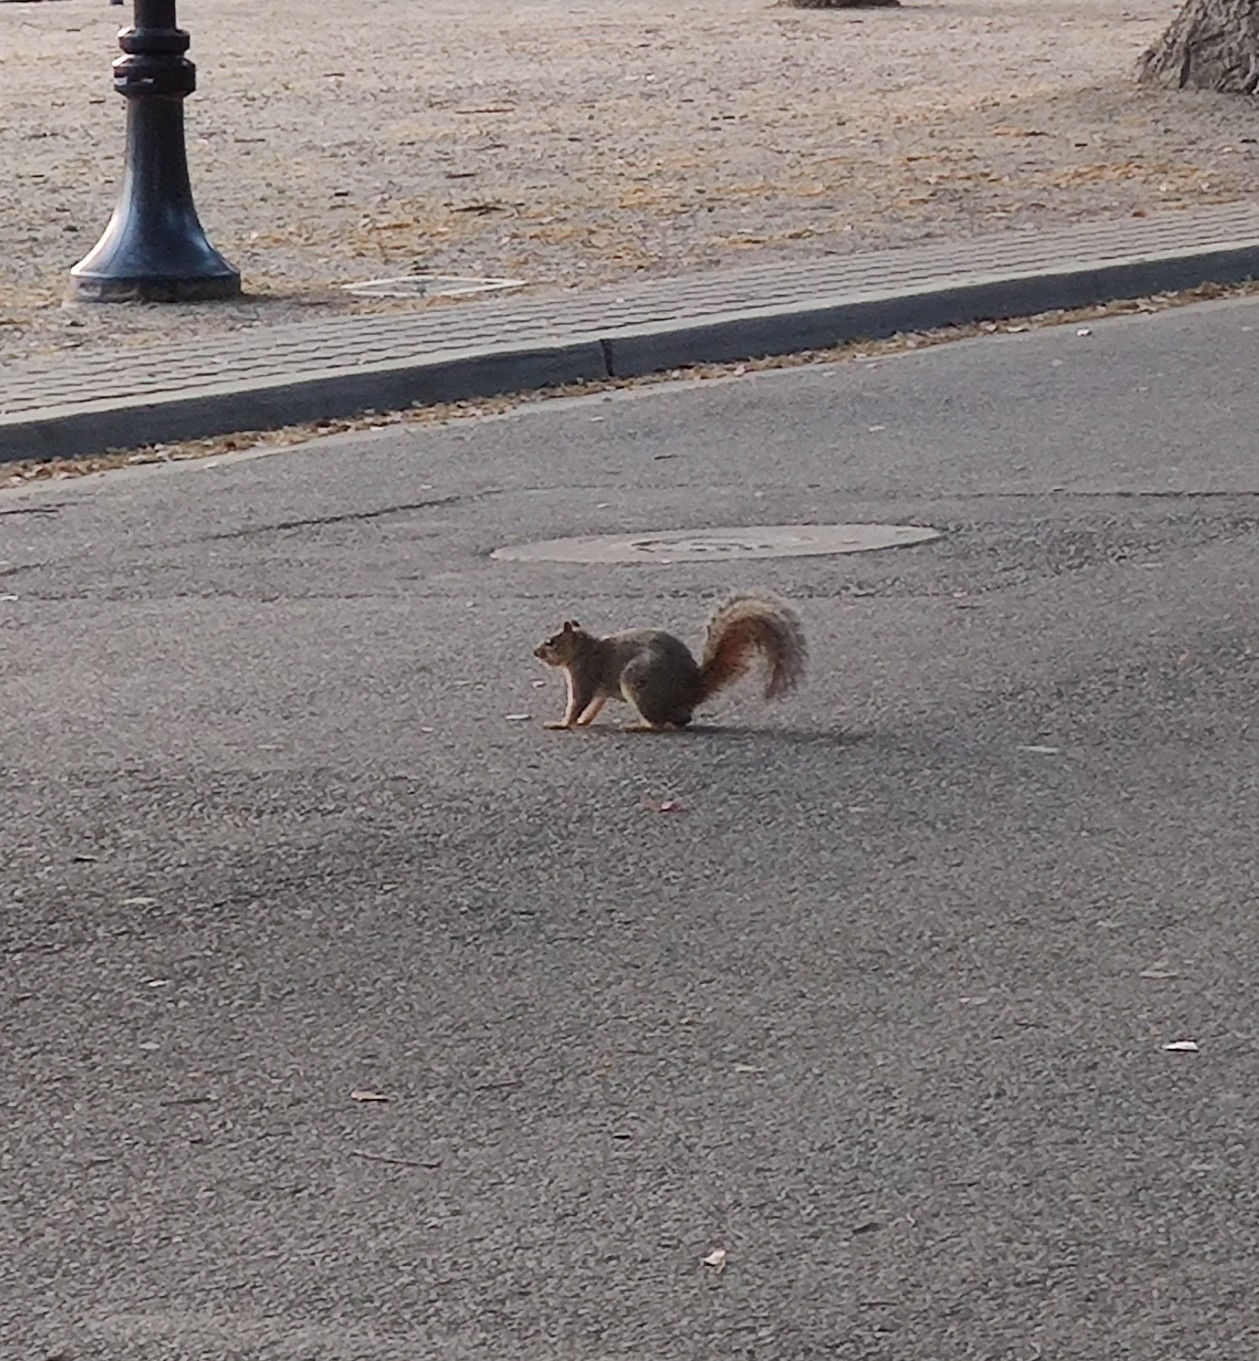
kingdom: Animalia
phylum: Chordata
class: Mammalia
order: Rodentia
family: Sciuridae
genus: Sciurus
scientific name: Sciurus niger
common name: Fox squirrel
